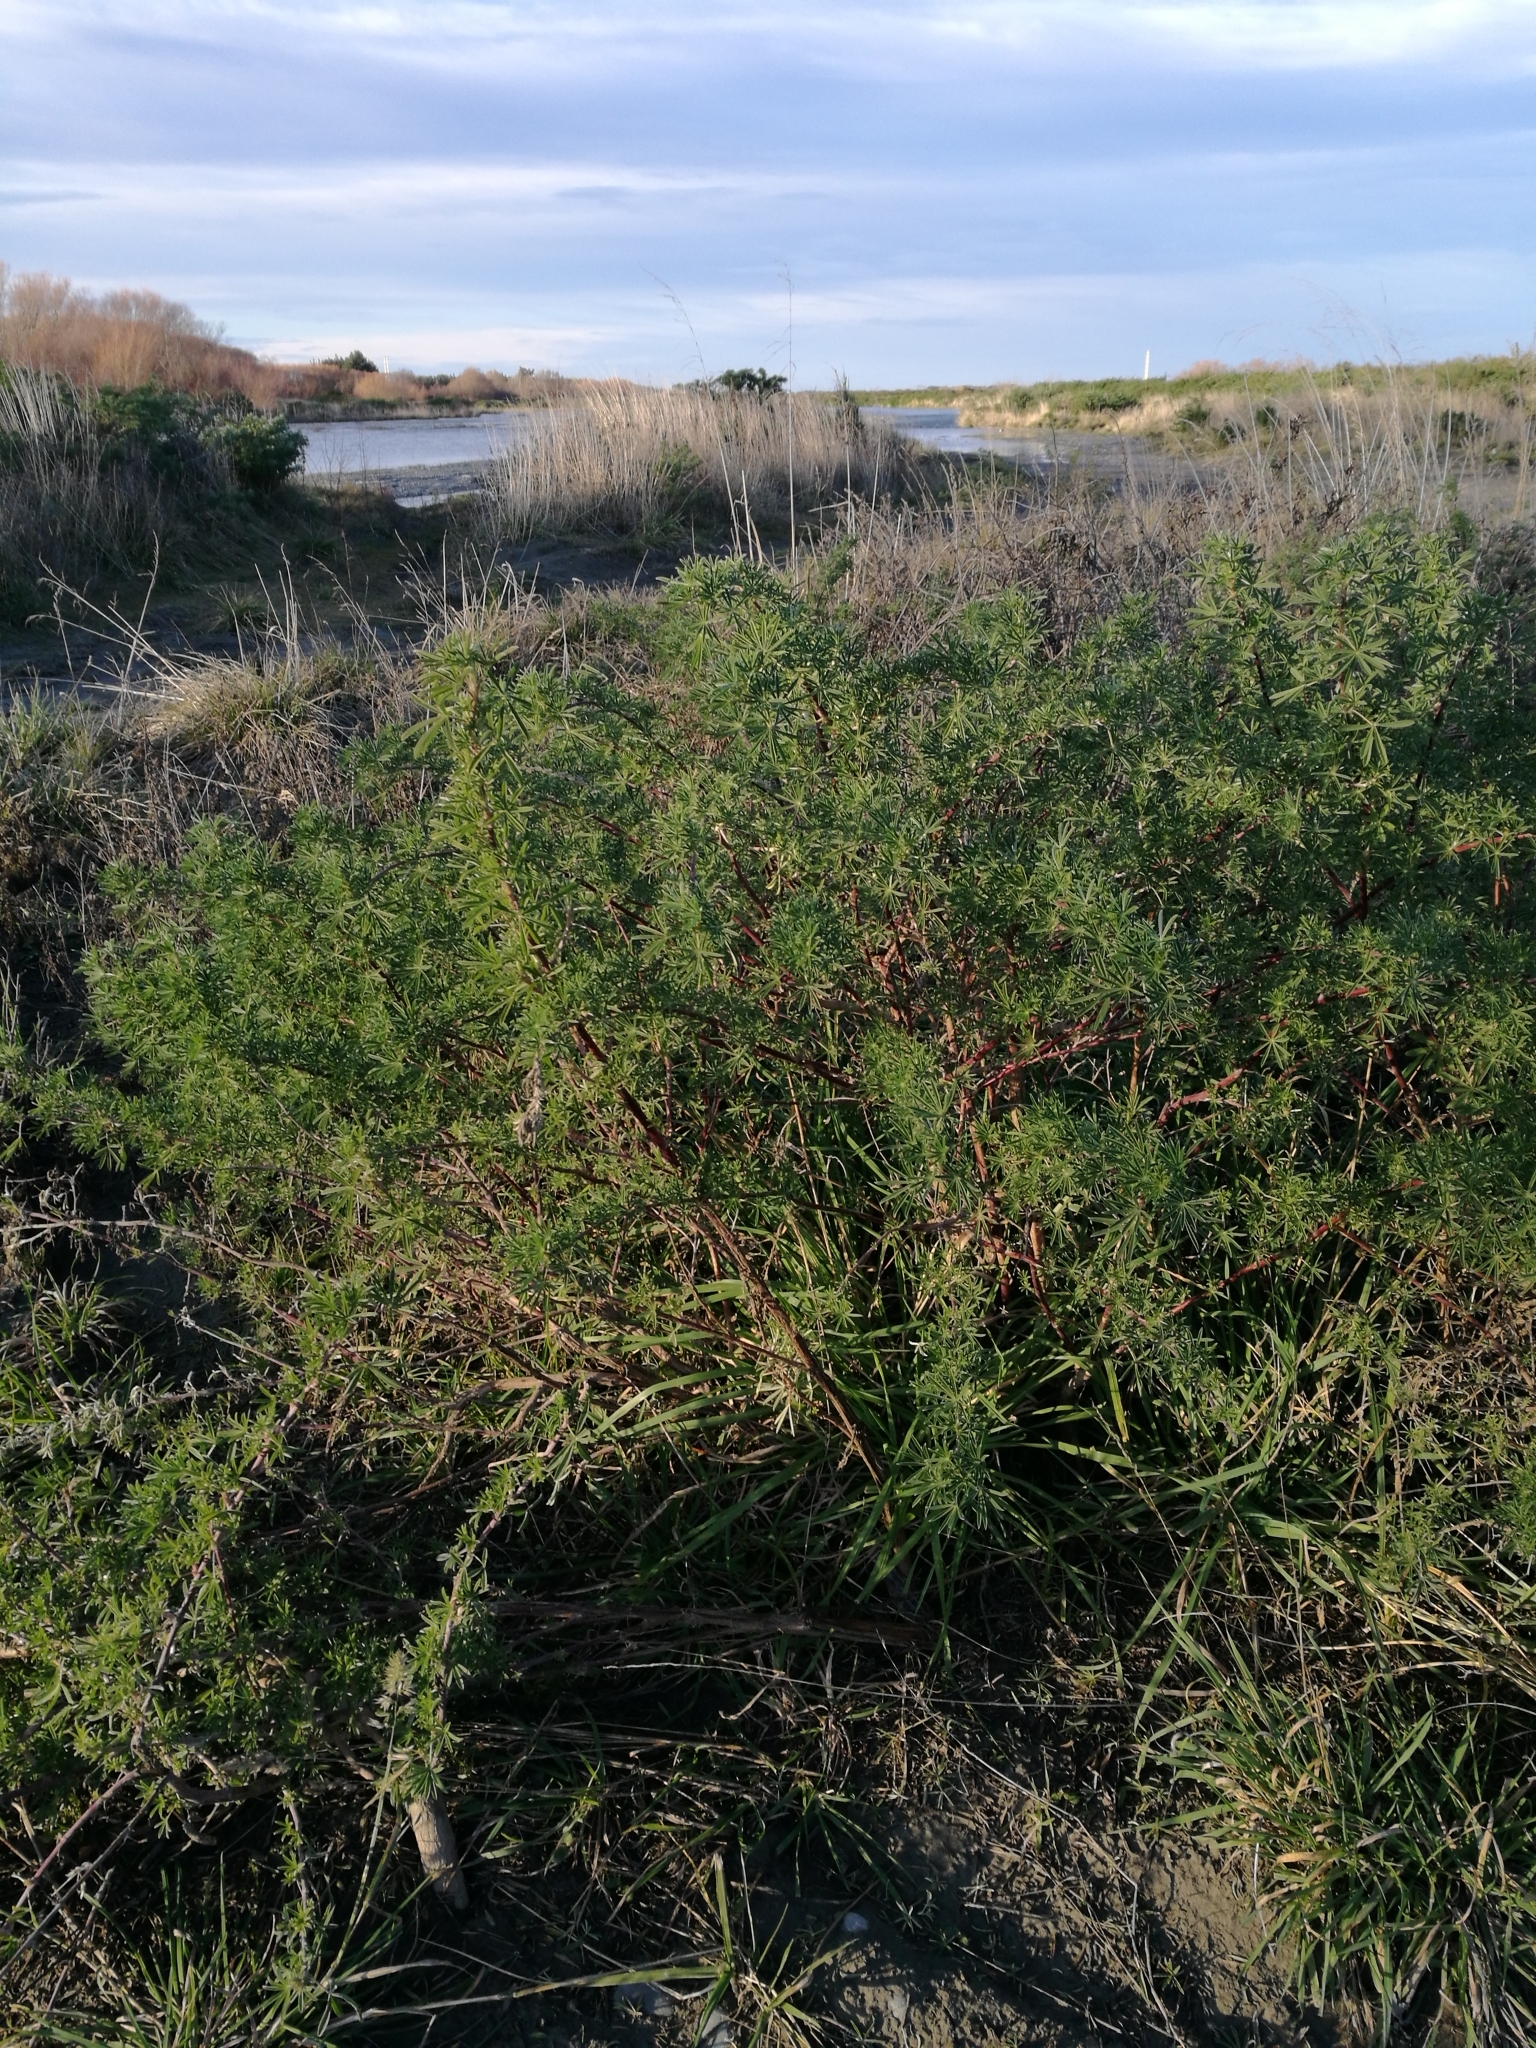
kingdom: Plantae
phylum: Tracheophyta
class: Magnoliopsida
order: Fabales
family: Fabaceae
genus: Lupinus
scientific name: Lupinus arboreus
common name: Yellow bush lupine
